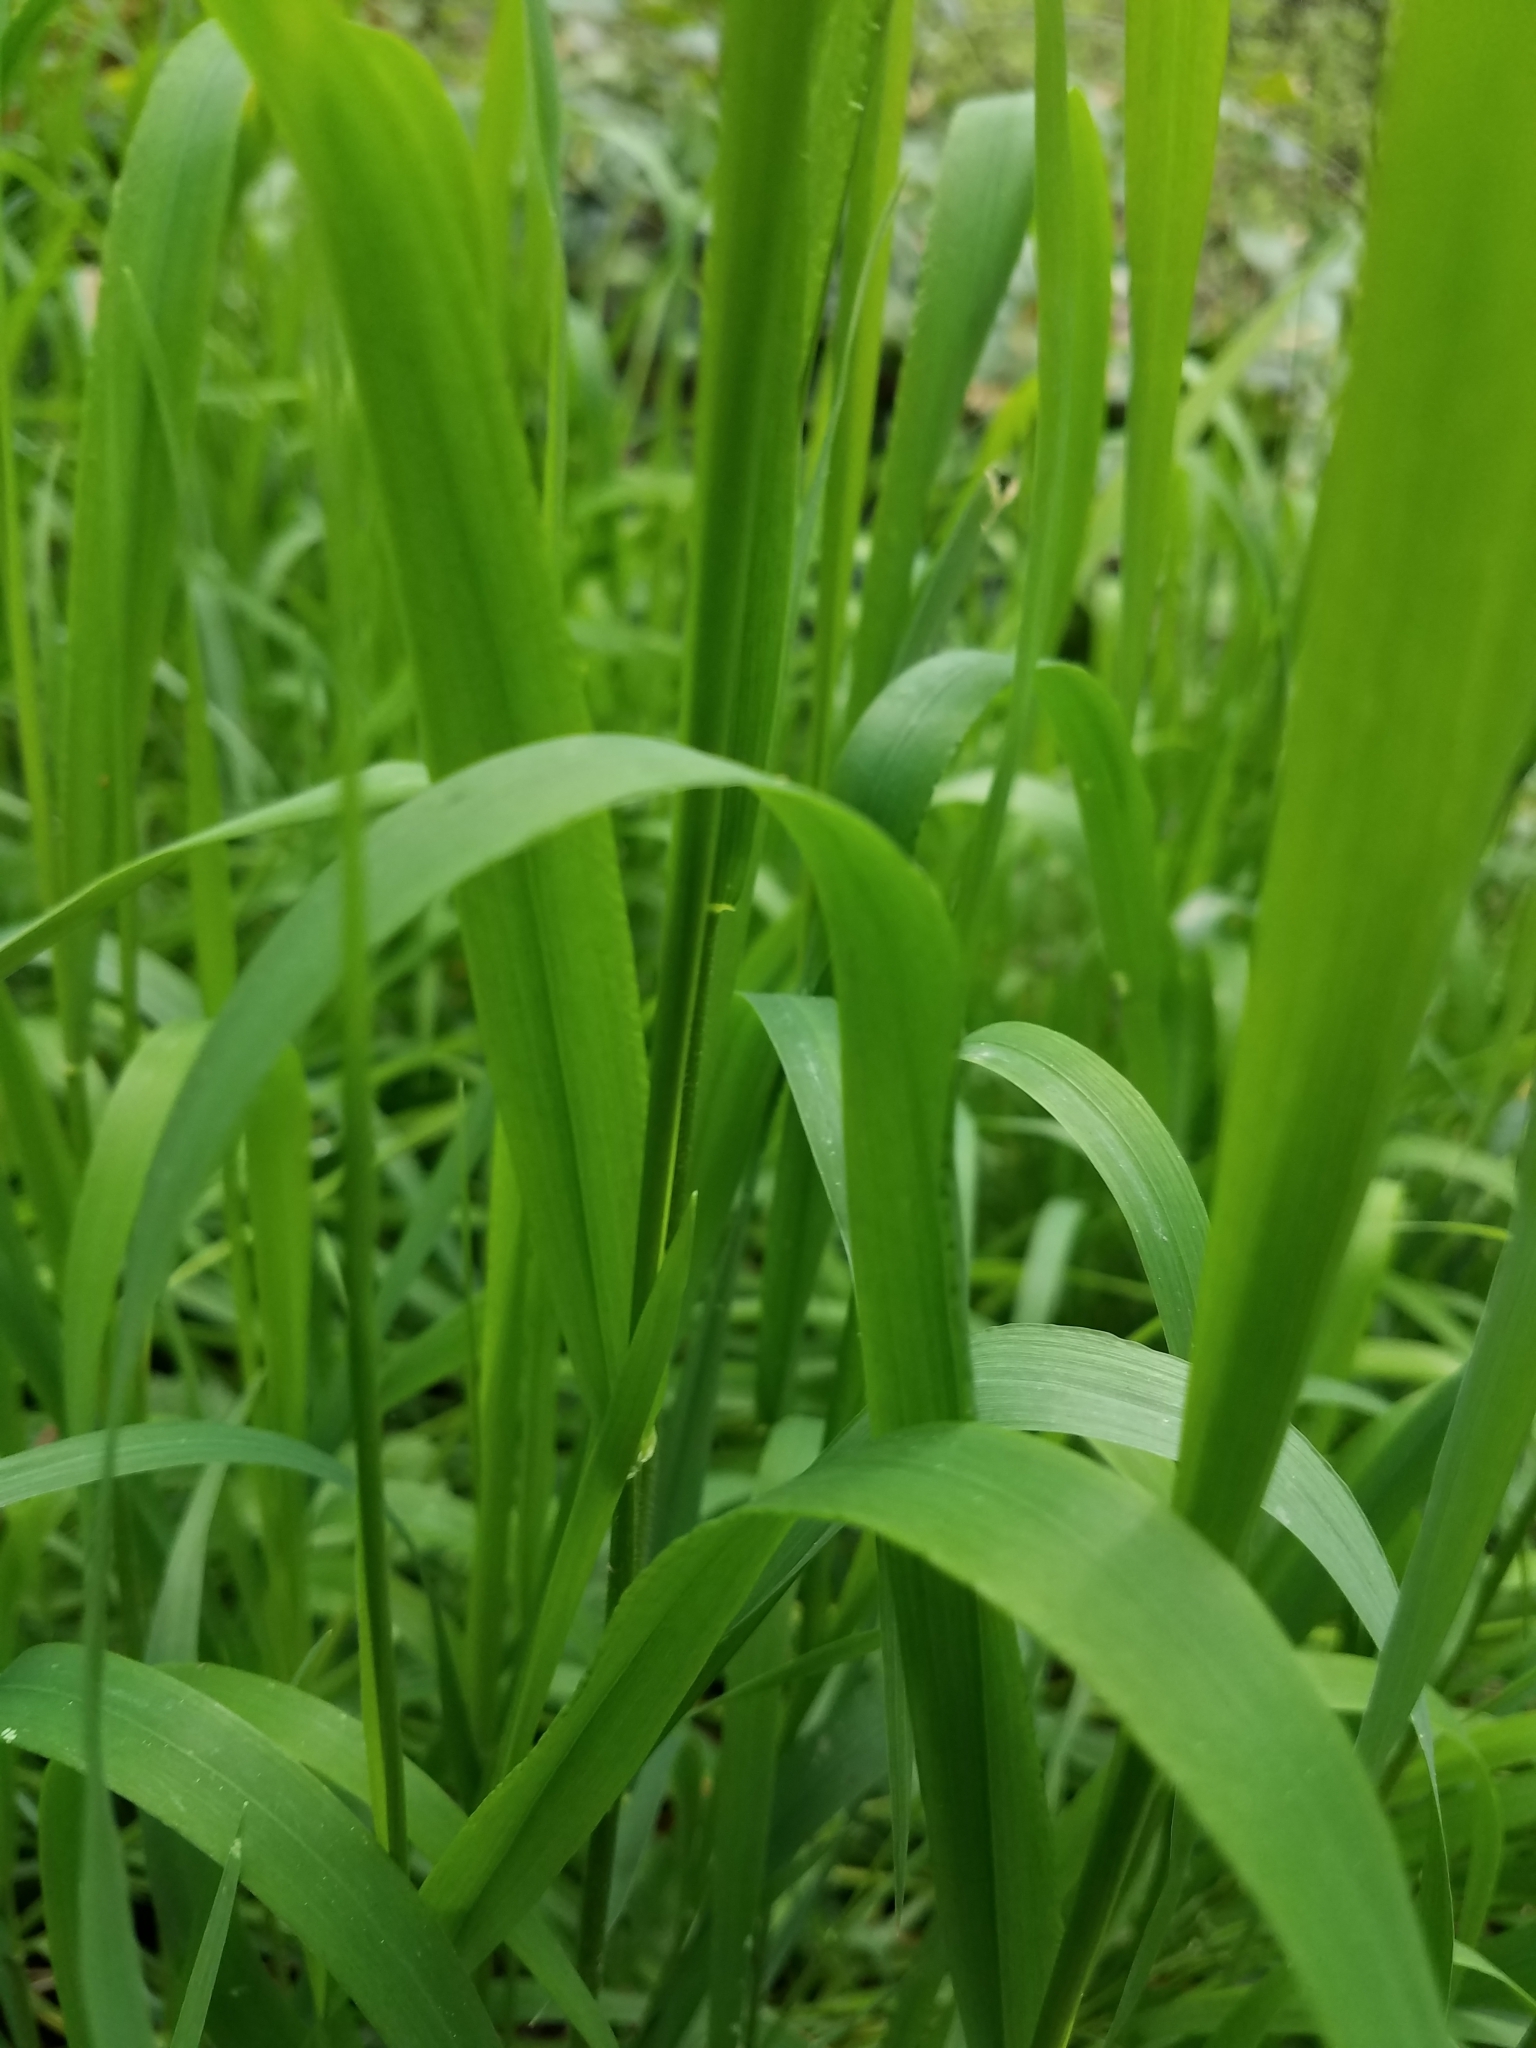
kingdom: Plantae
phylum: Tracheophyta
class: Liliopsida
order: Poales
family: Poaceae
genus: Phalaris
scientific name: Phalaris arundinacea
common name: Reed canary-grass
